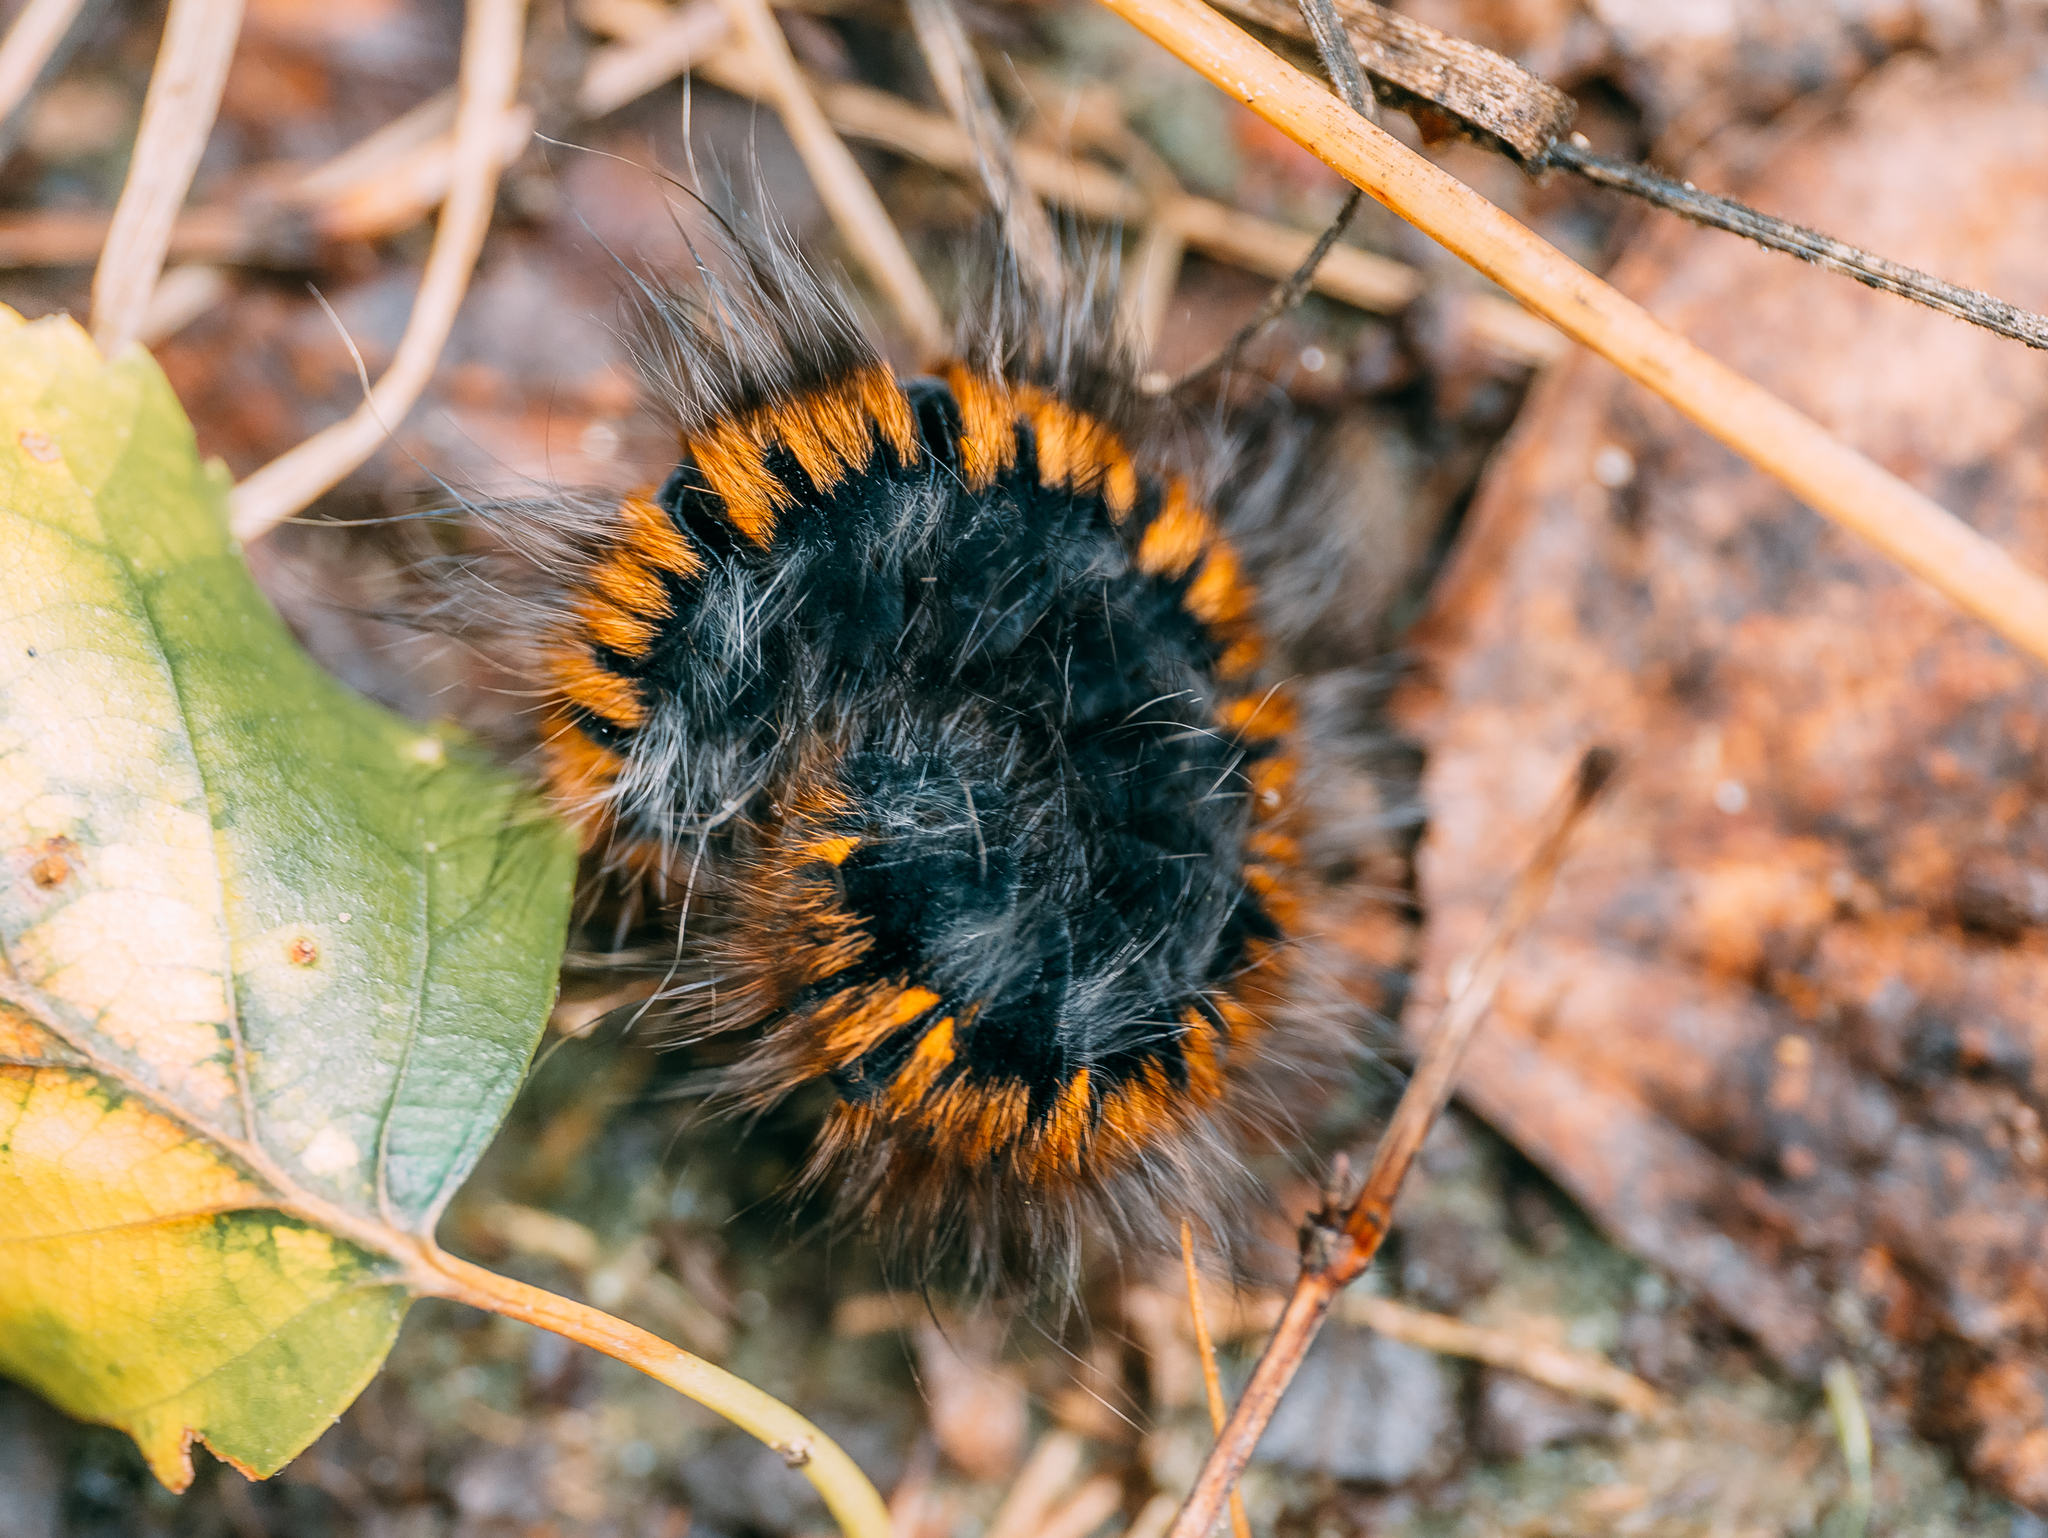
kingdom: Animalia
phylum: Arthropoda
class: Insecta
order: Lepidoptera
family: Lasiocampidae
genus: Macrothylacia
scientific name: Macrothylacia rubi
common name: Fox moth
